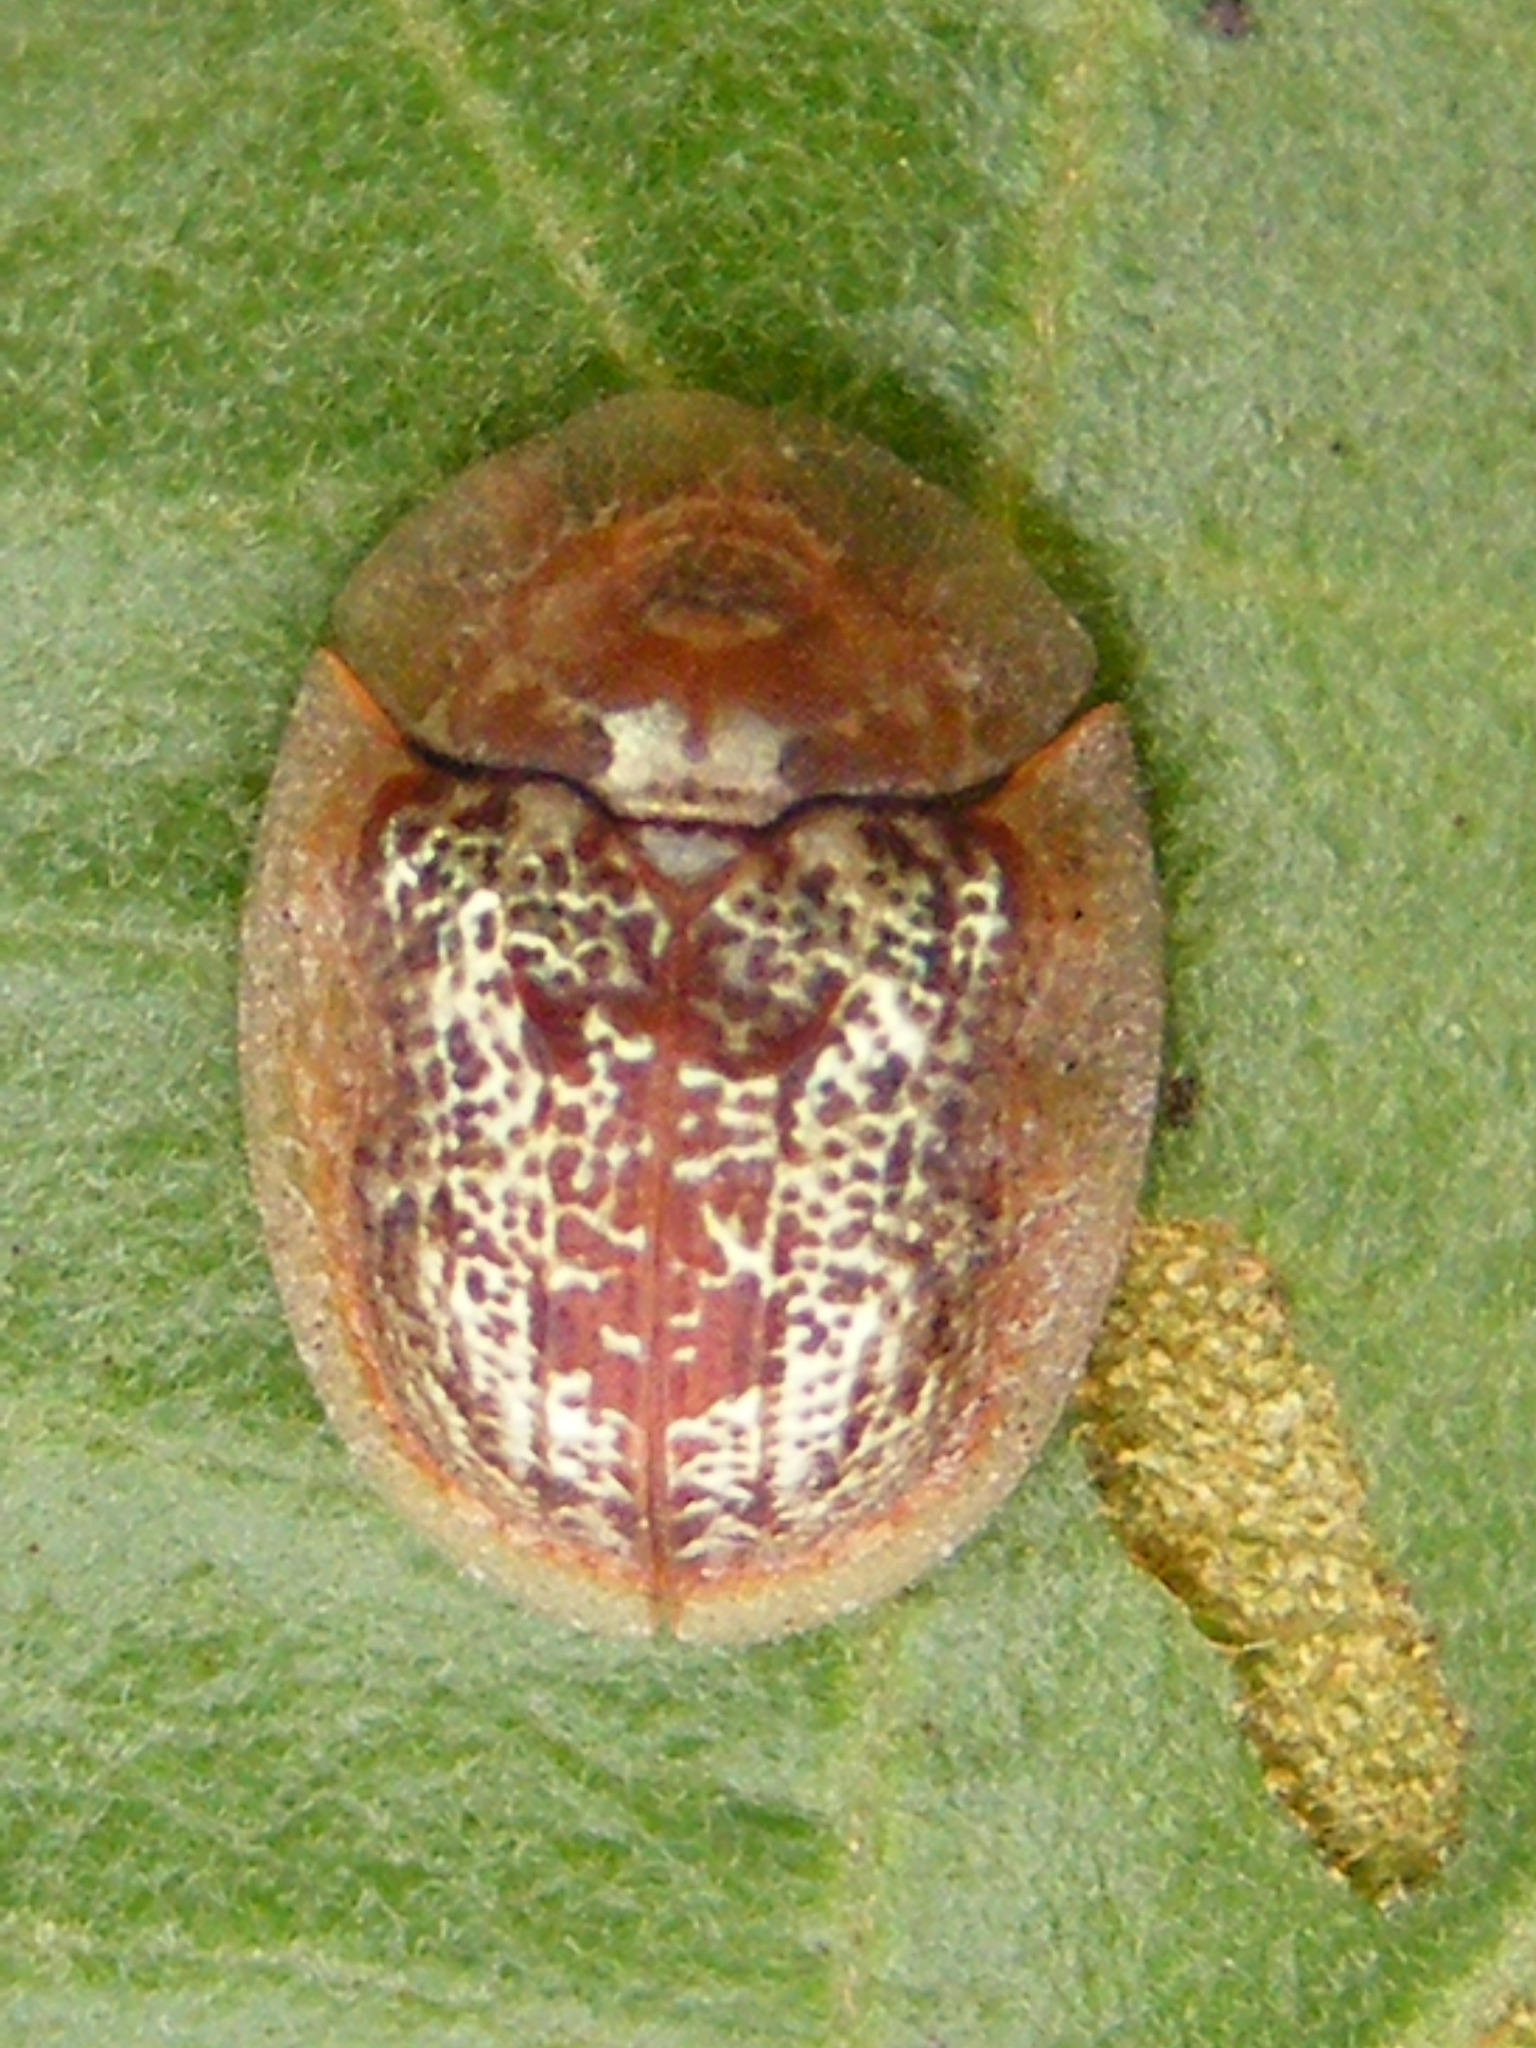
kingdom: Animalia
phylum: Arthropoda
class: Insecta
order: Coleoptera
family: Chrysomelidae
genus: Cassida
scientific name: Cassida thomsoni
